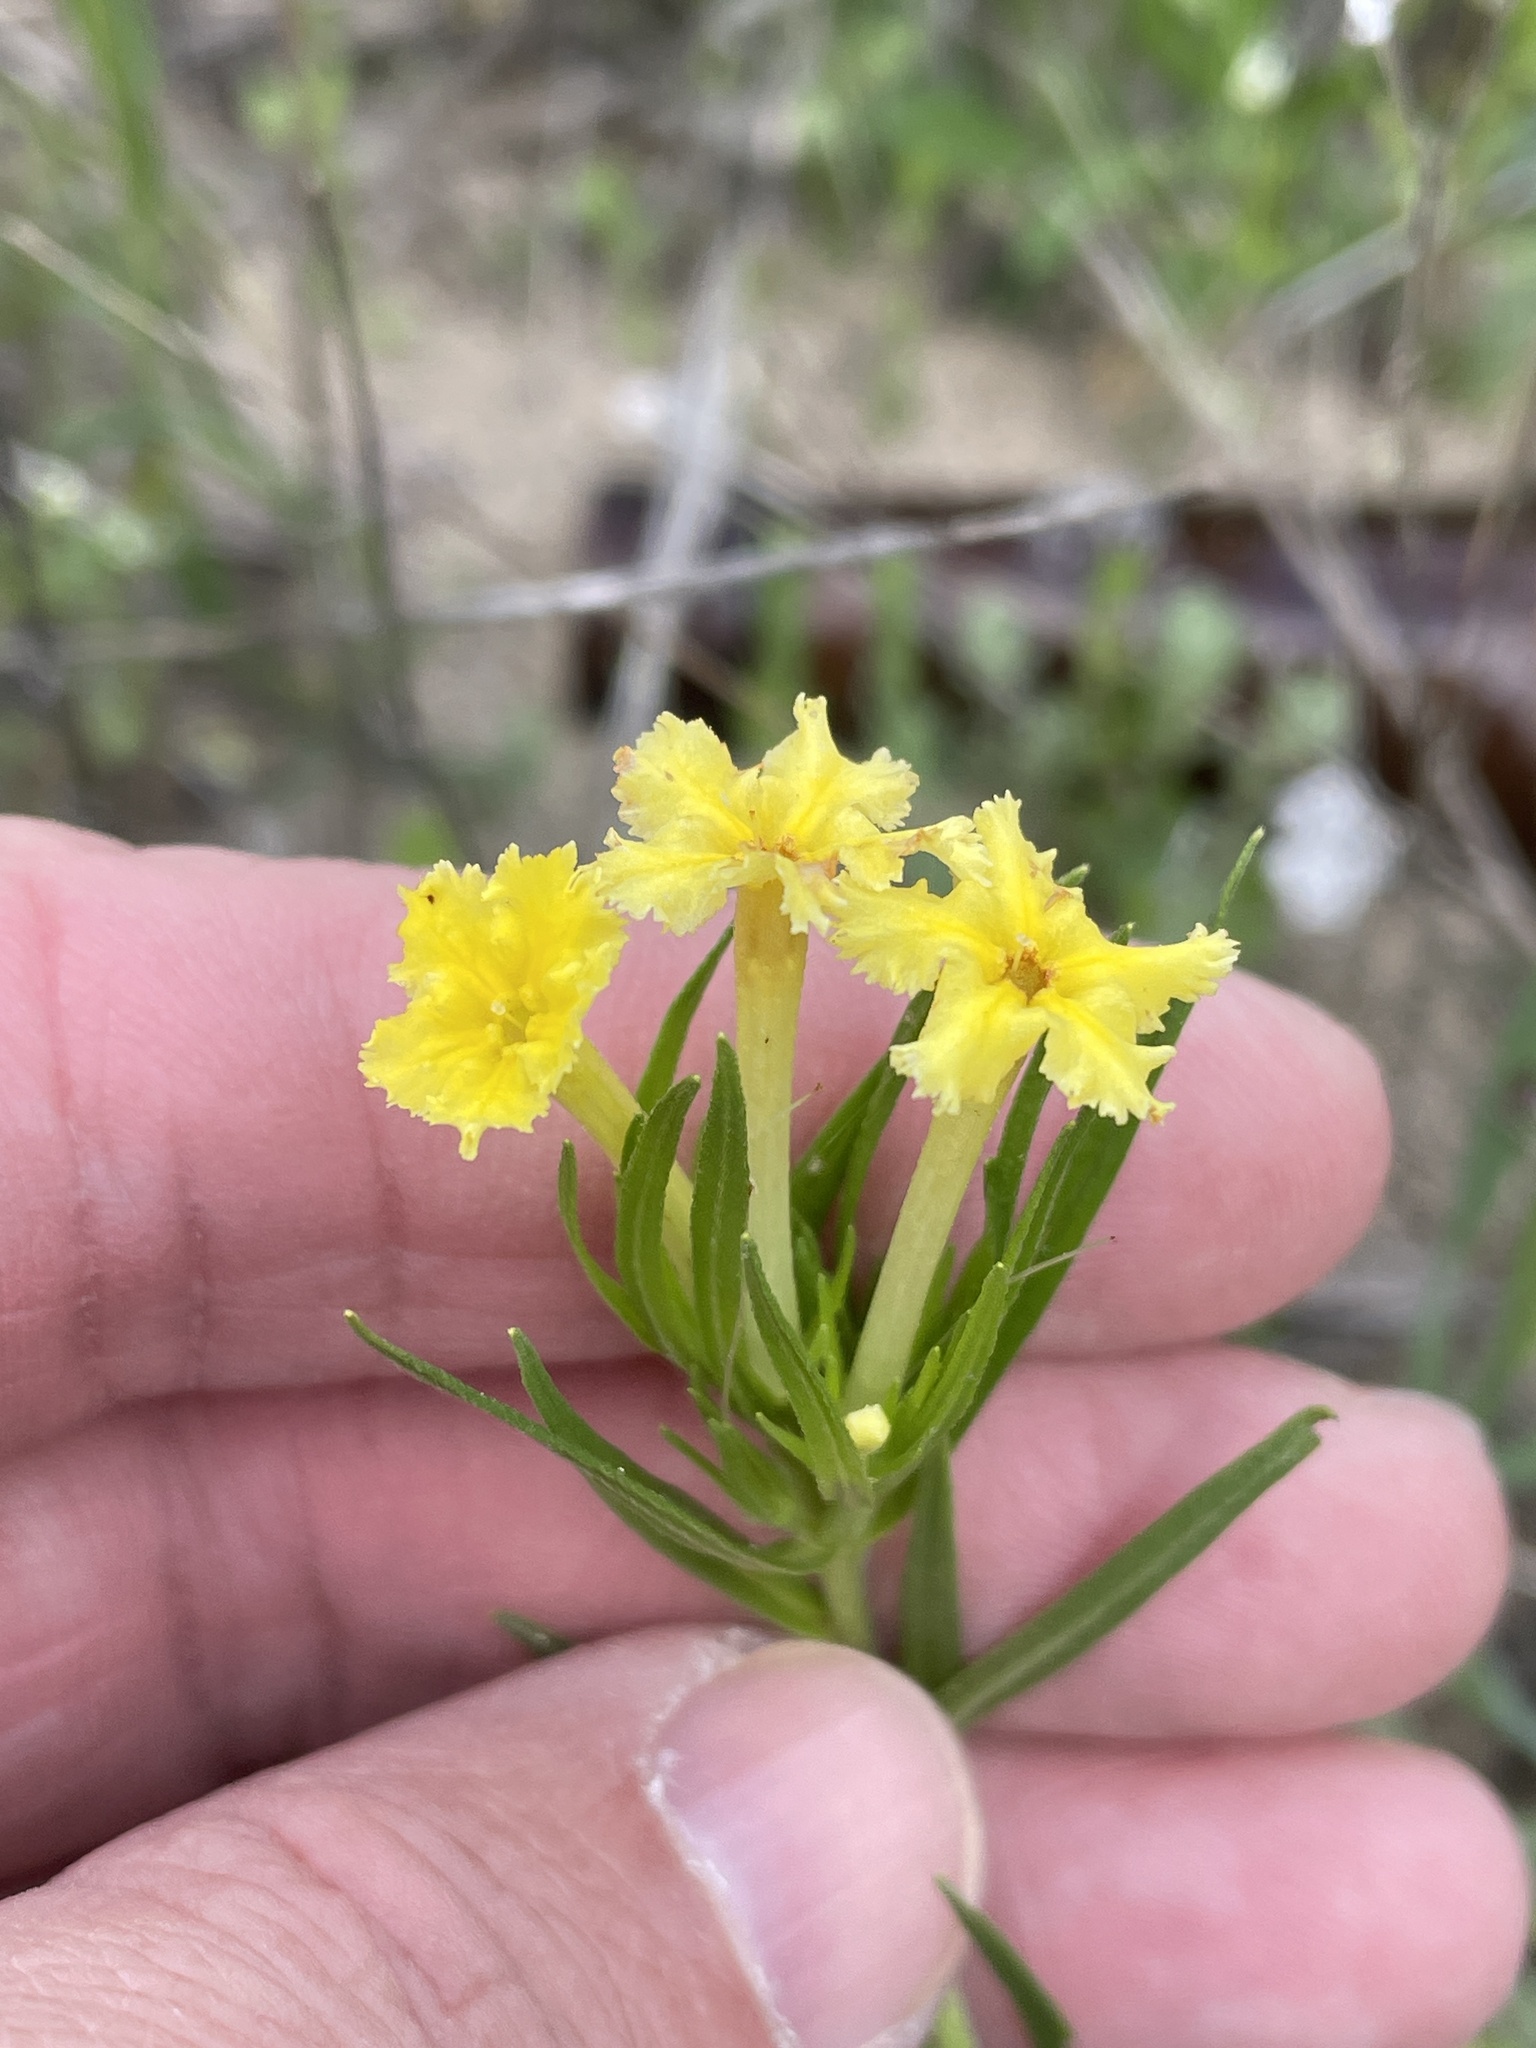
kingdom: Plantae
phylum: Tracheophyta
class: Magnoliopsida
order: Boraginales
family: Boraginaceae
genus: Lithospermum
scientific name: Lithospermum incisum
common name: Fringed gromwell
